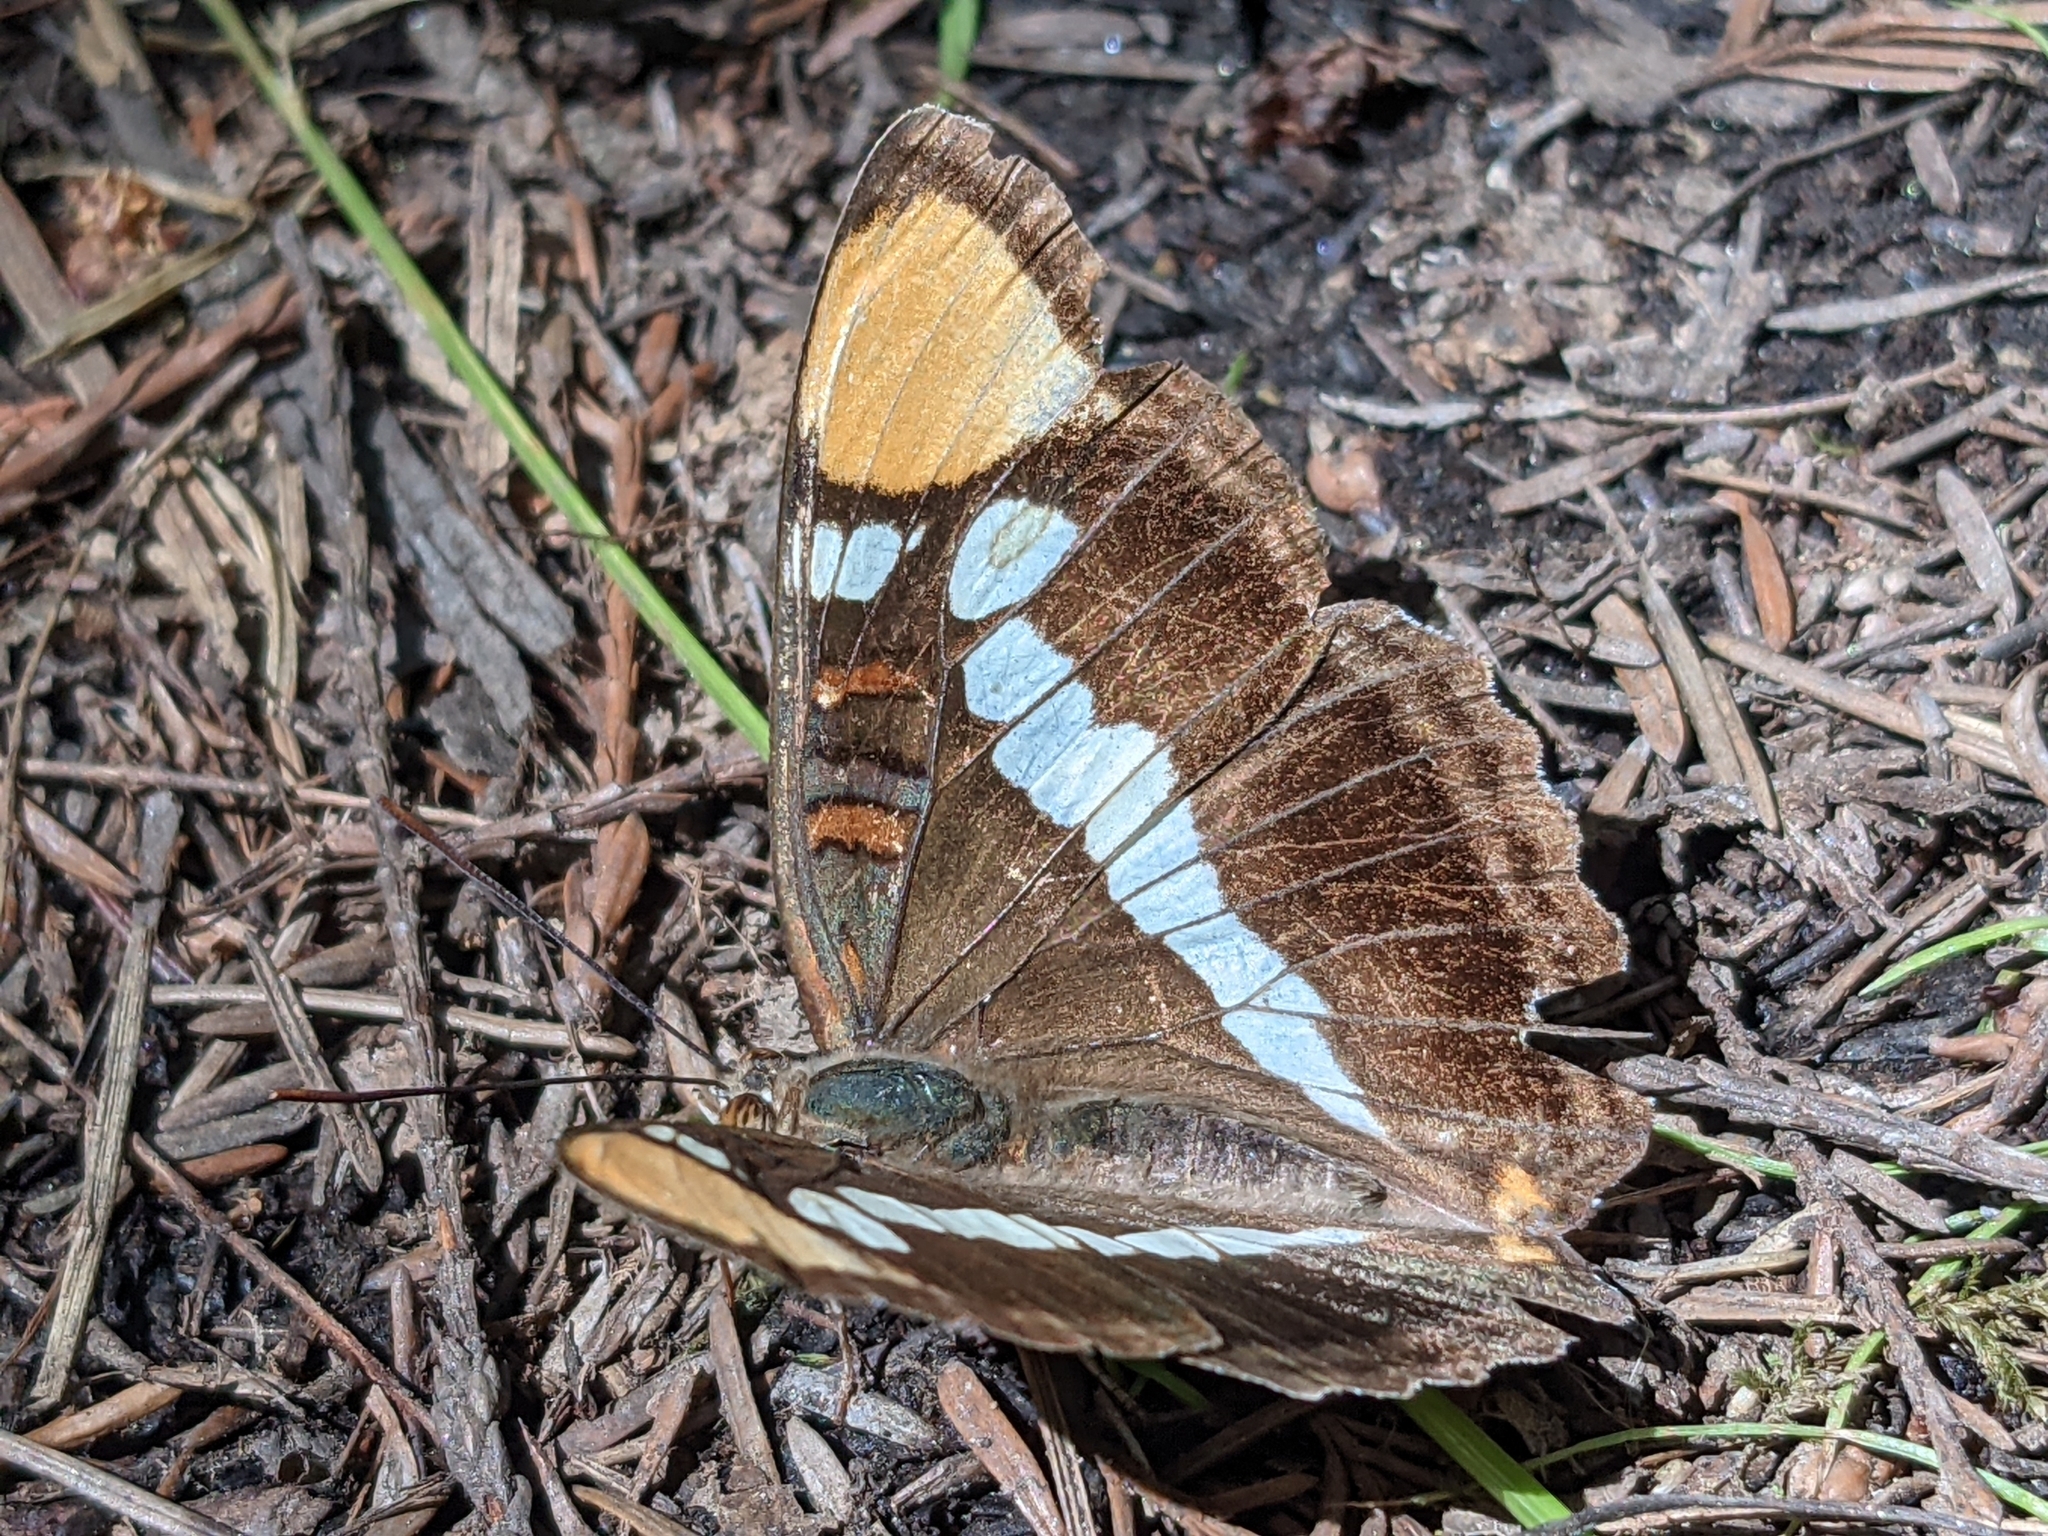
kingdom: Animalia
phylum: Arthropoda
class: Insecta
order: Lepidoptera
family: Nymphalidae
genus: Limenitis
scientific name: Limenitis bredowii
